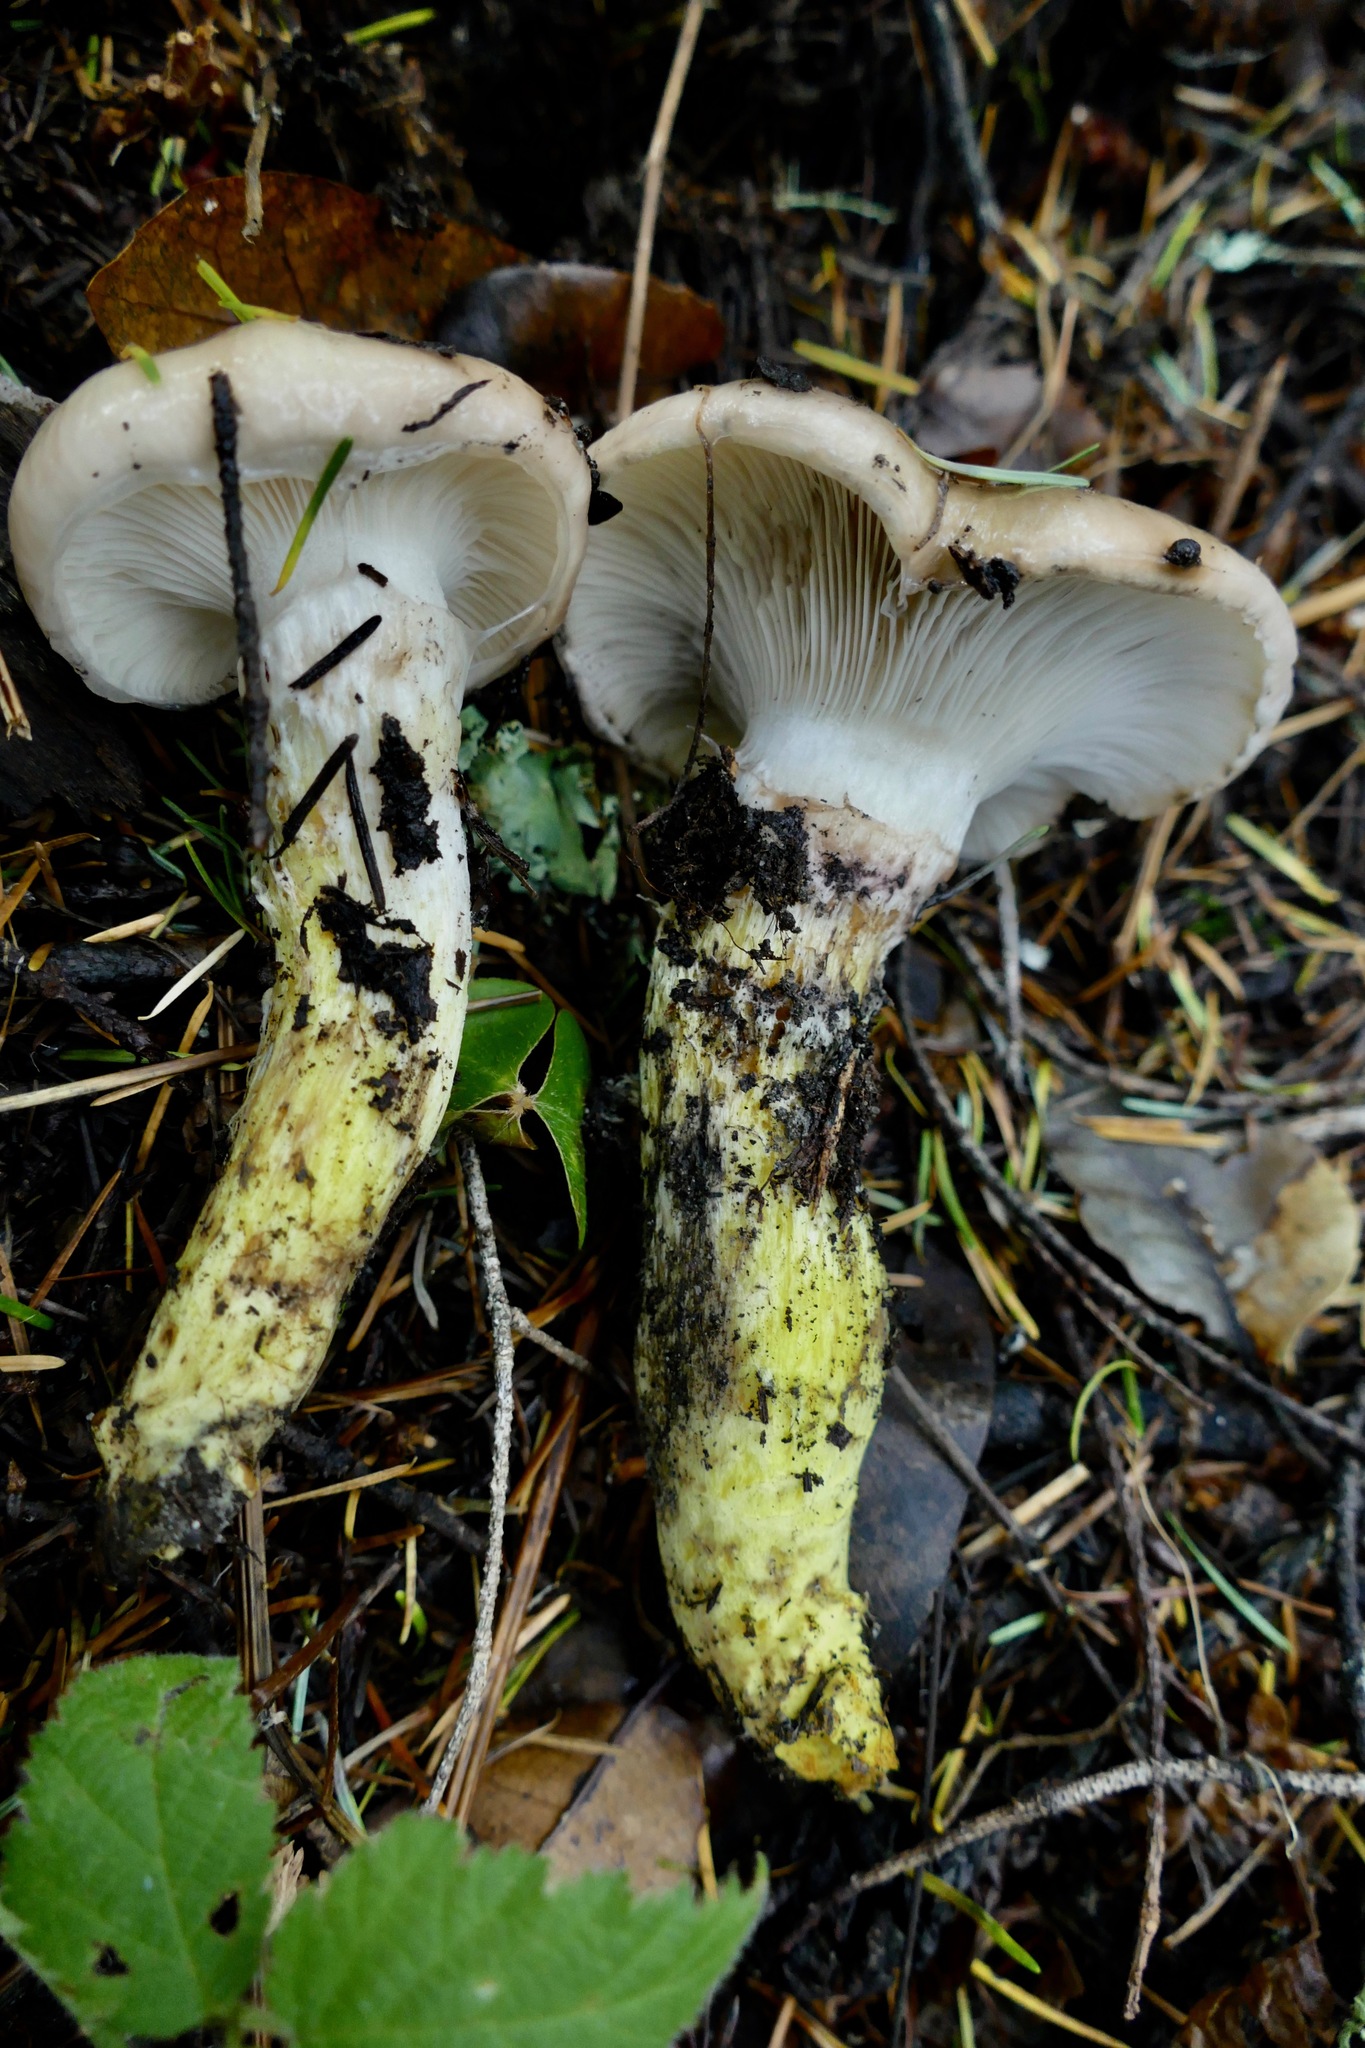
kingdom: Fungi
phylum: Basidiomycota
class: Agaricomycetes
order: Boletales
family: Gomphidiaceae
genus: Gomphidius
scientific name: Gomphidius oregonensis
